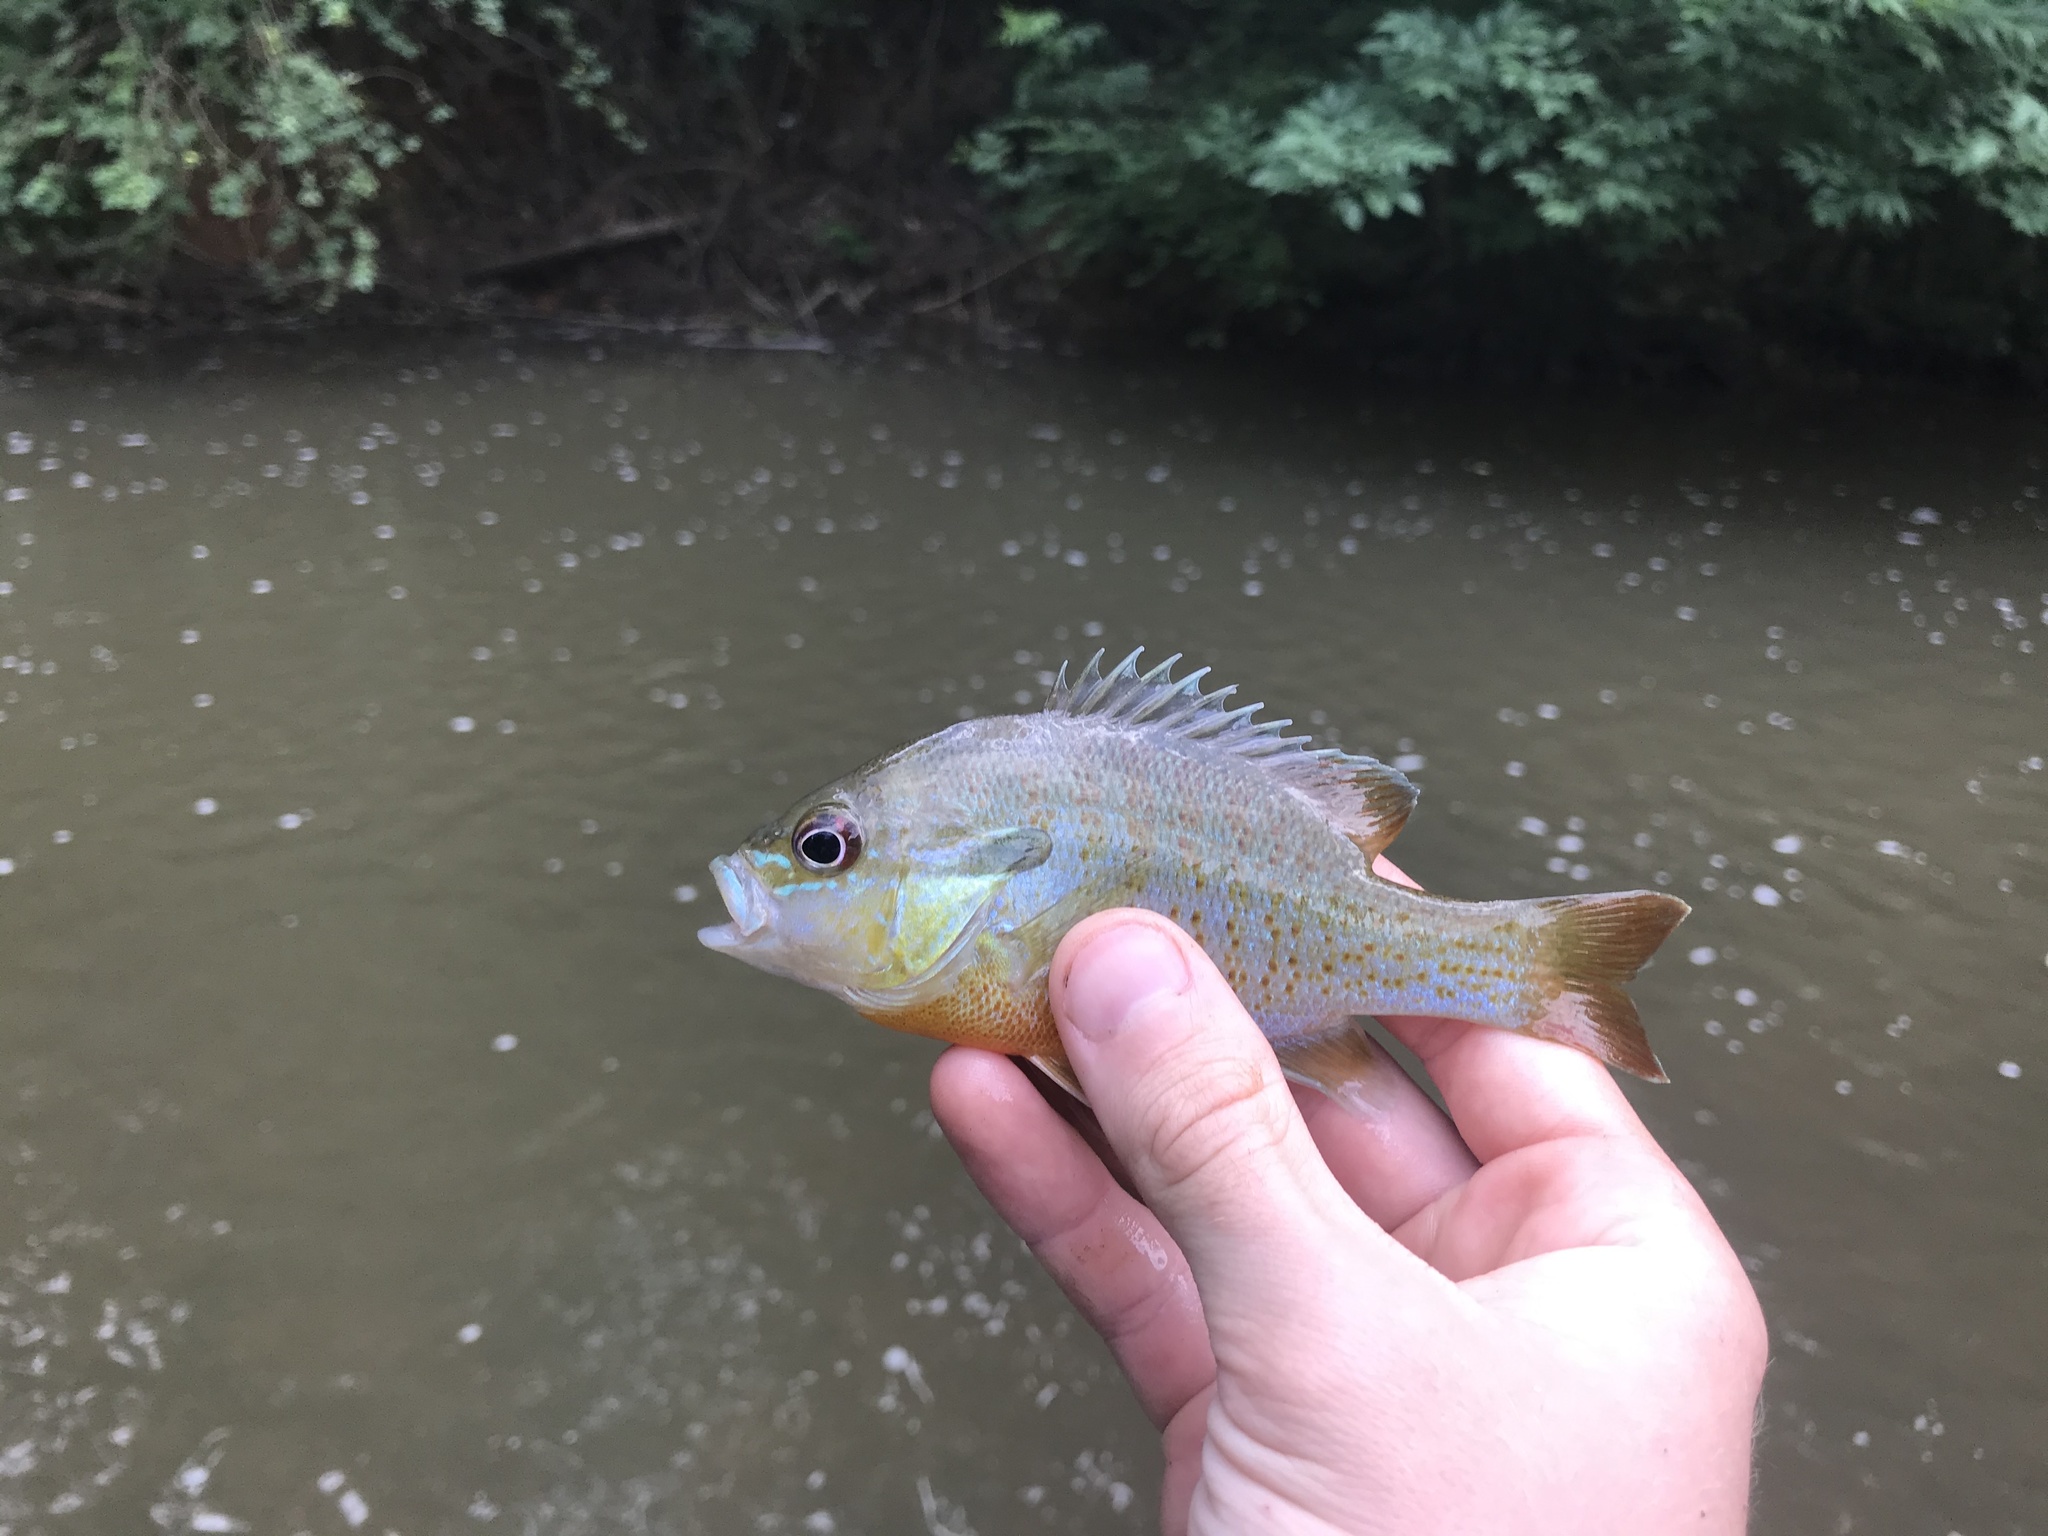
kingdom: Animalia
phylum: Chordata
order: Perciformes
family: Centrarchidae
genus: Lepomis
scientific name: Lepomis auritus
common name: Redbreast sunfish
